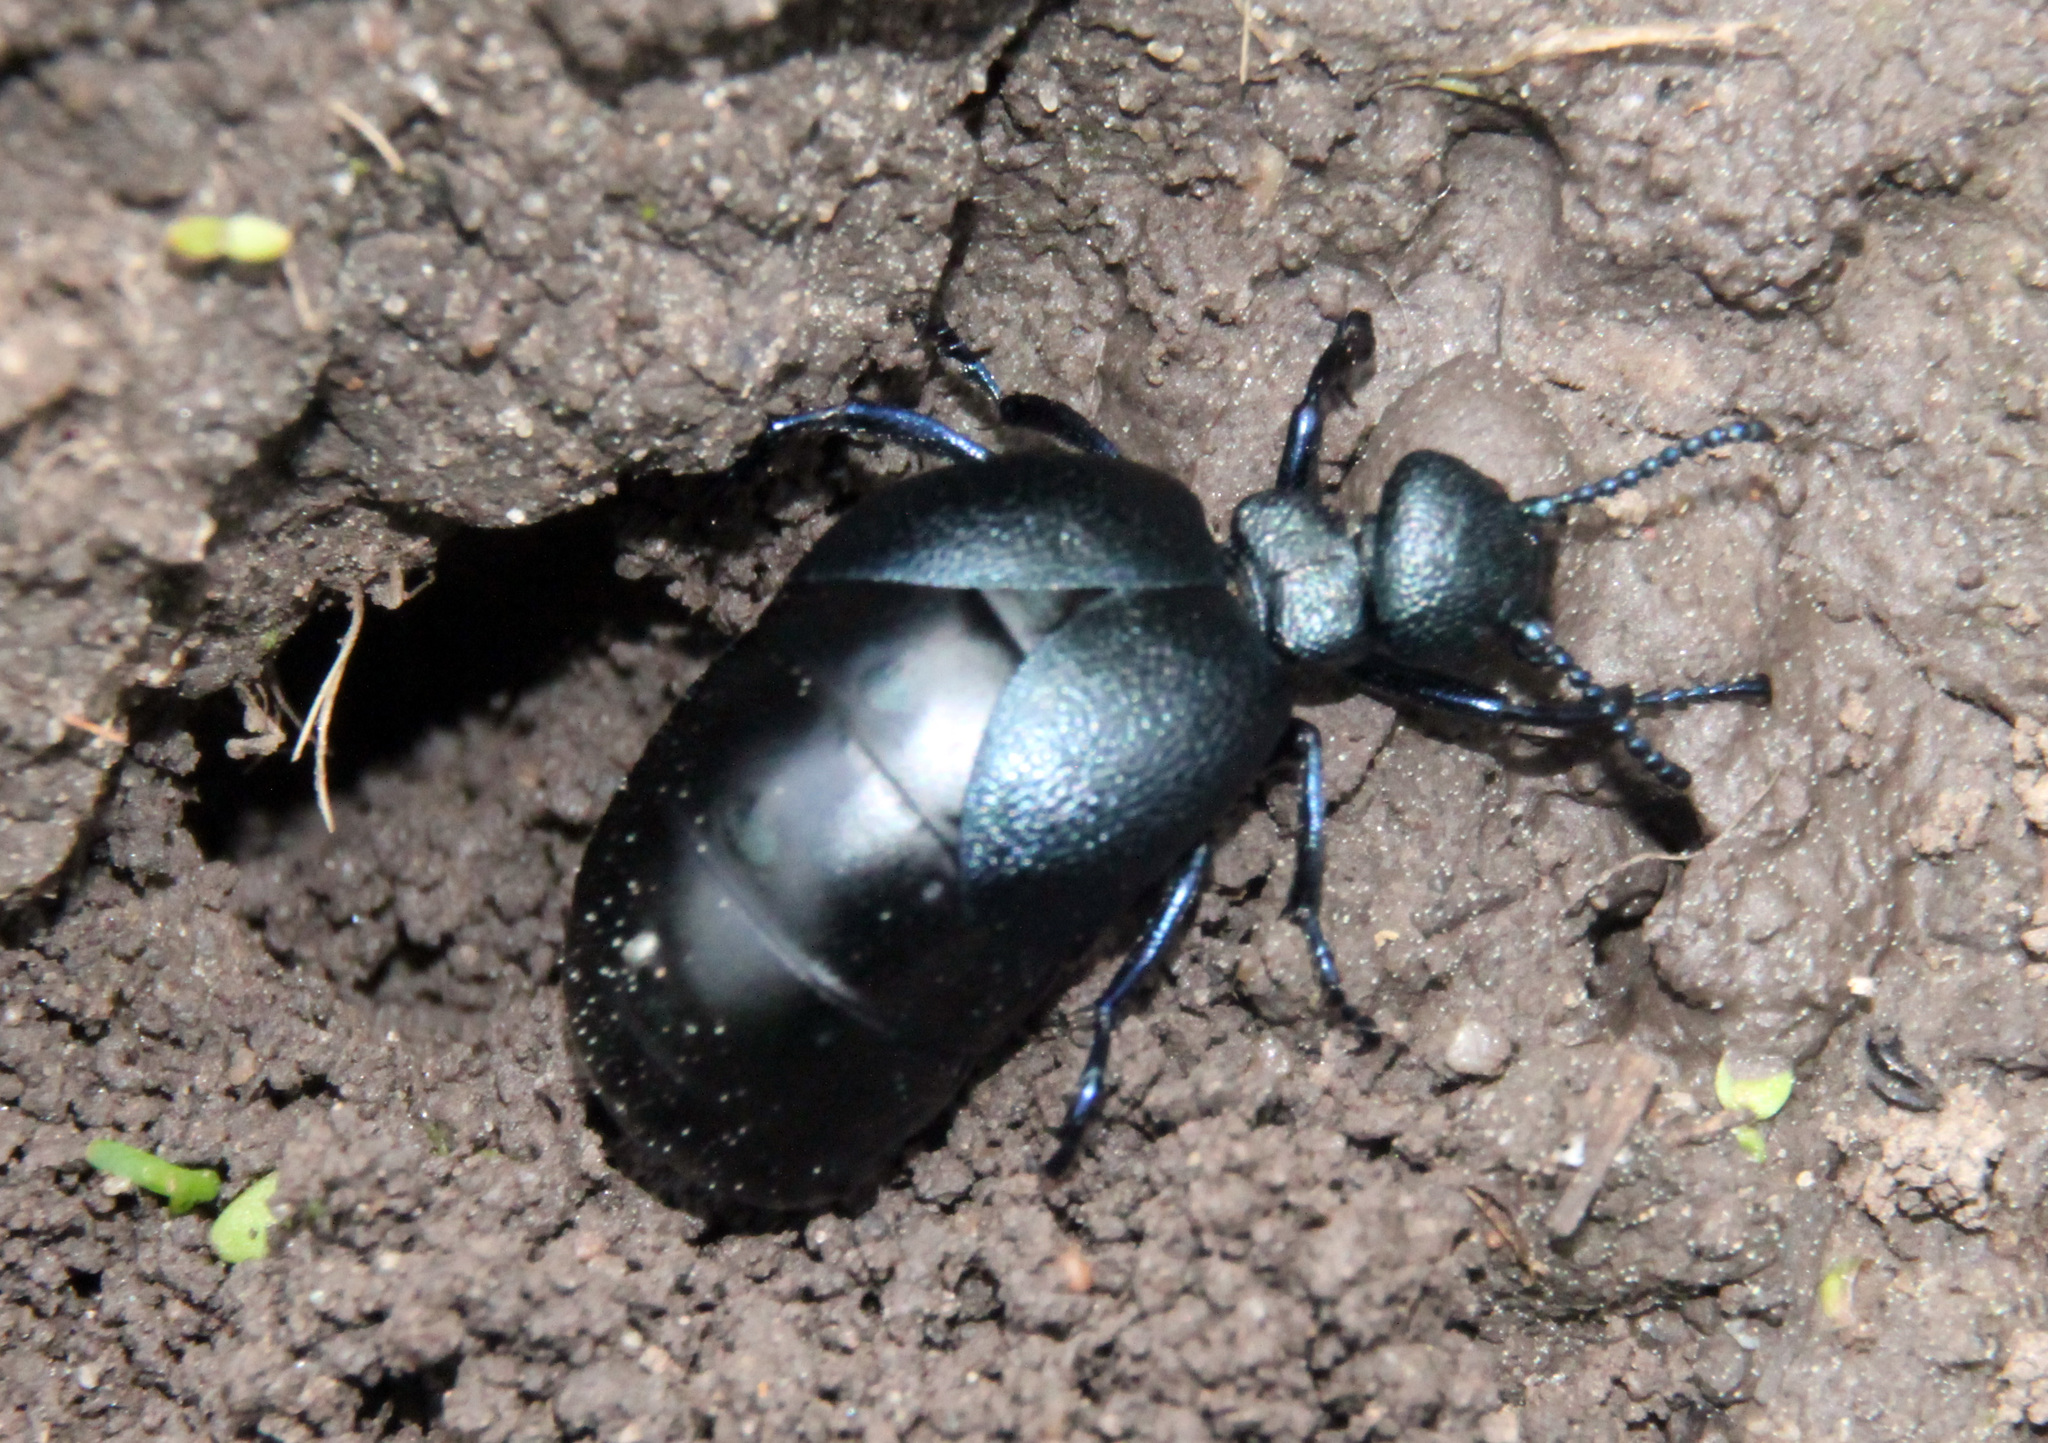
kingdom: Animalia
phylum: Arthropoda
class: Insecta
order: Coleoptera
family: Meloidae
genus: Eurymeloe
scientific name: Eurymeloe
